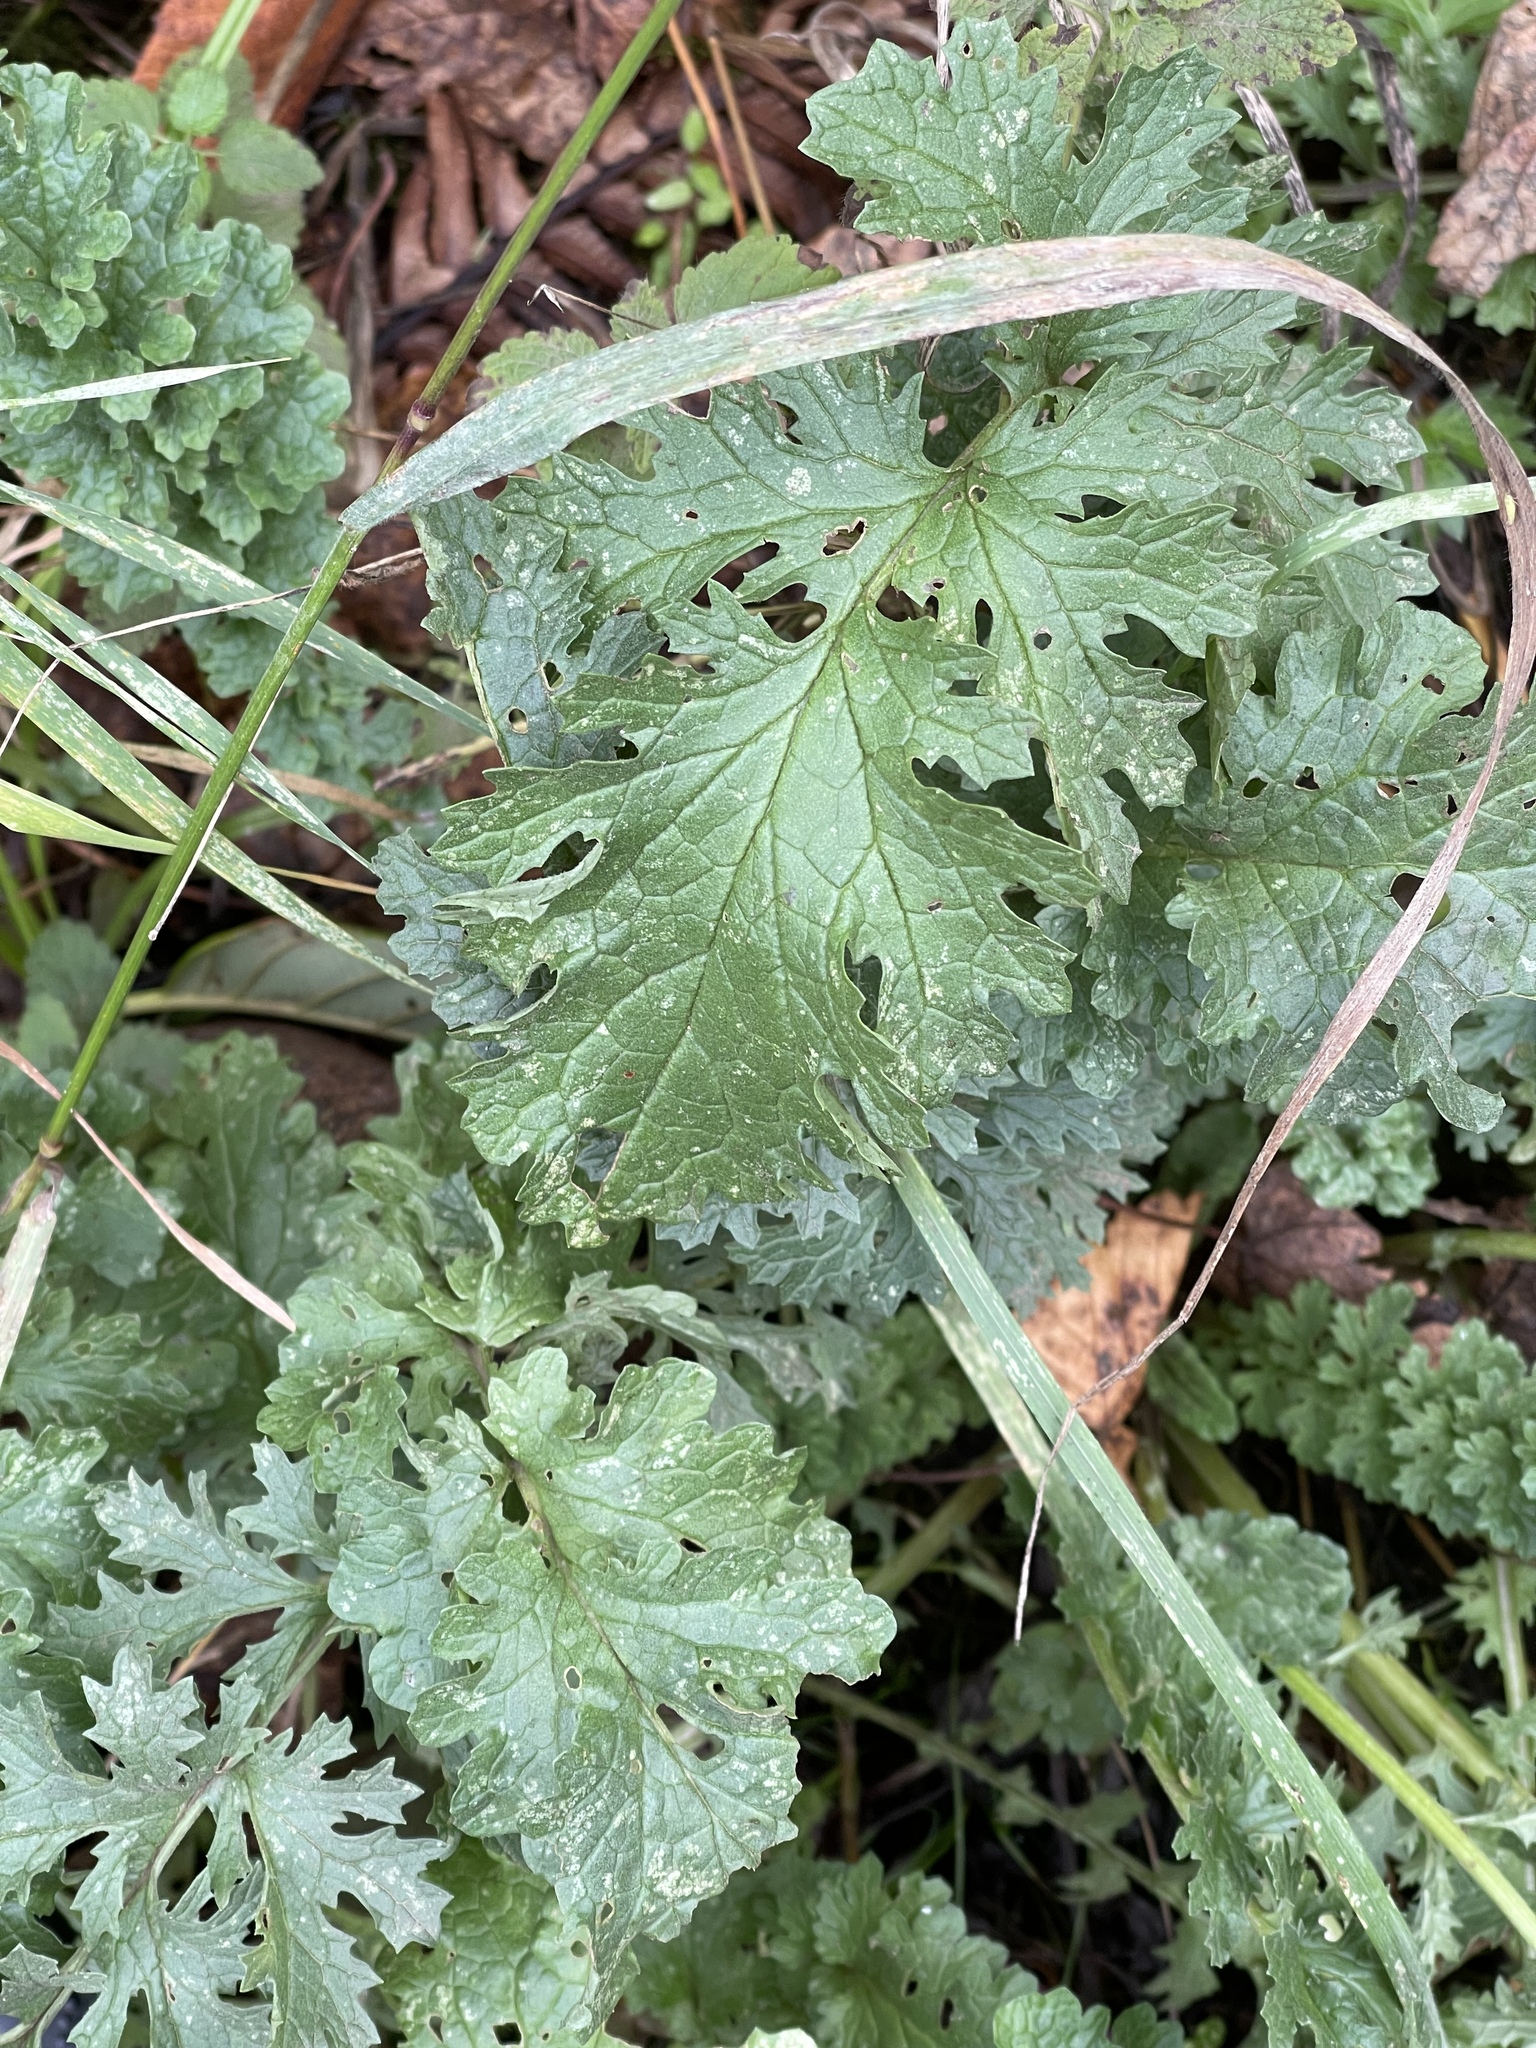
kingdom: Plantae
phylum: Tracheophyta
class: Magnoliopsida
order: Asterales
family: Asteraceae
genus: Jacobaea
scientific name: Jacobaea vulgaris
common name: Stinking willie
